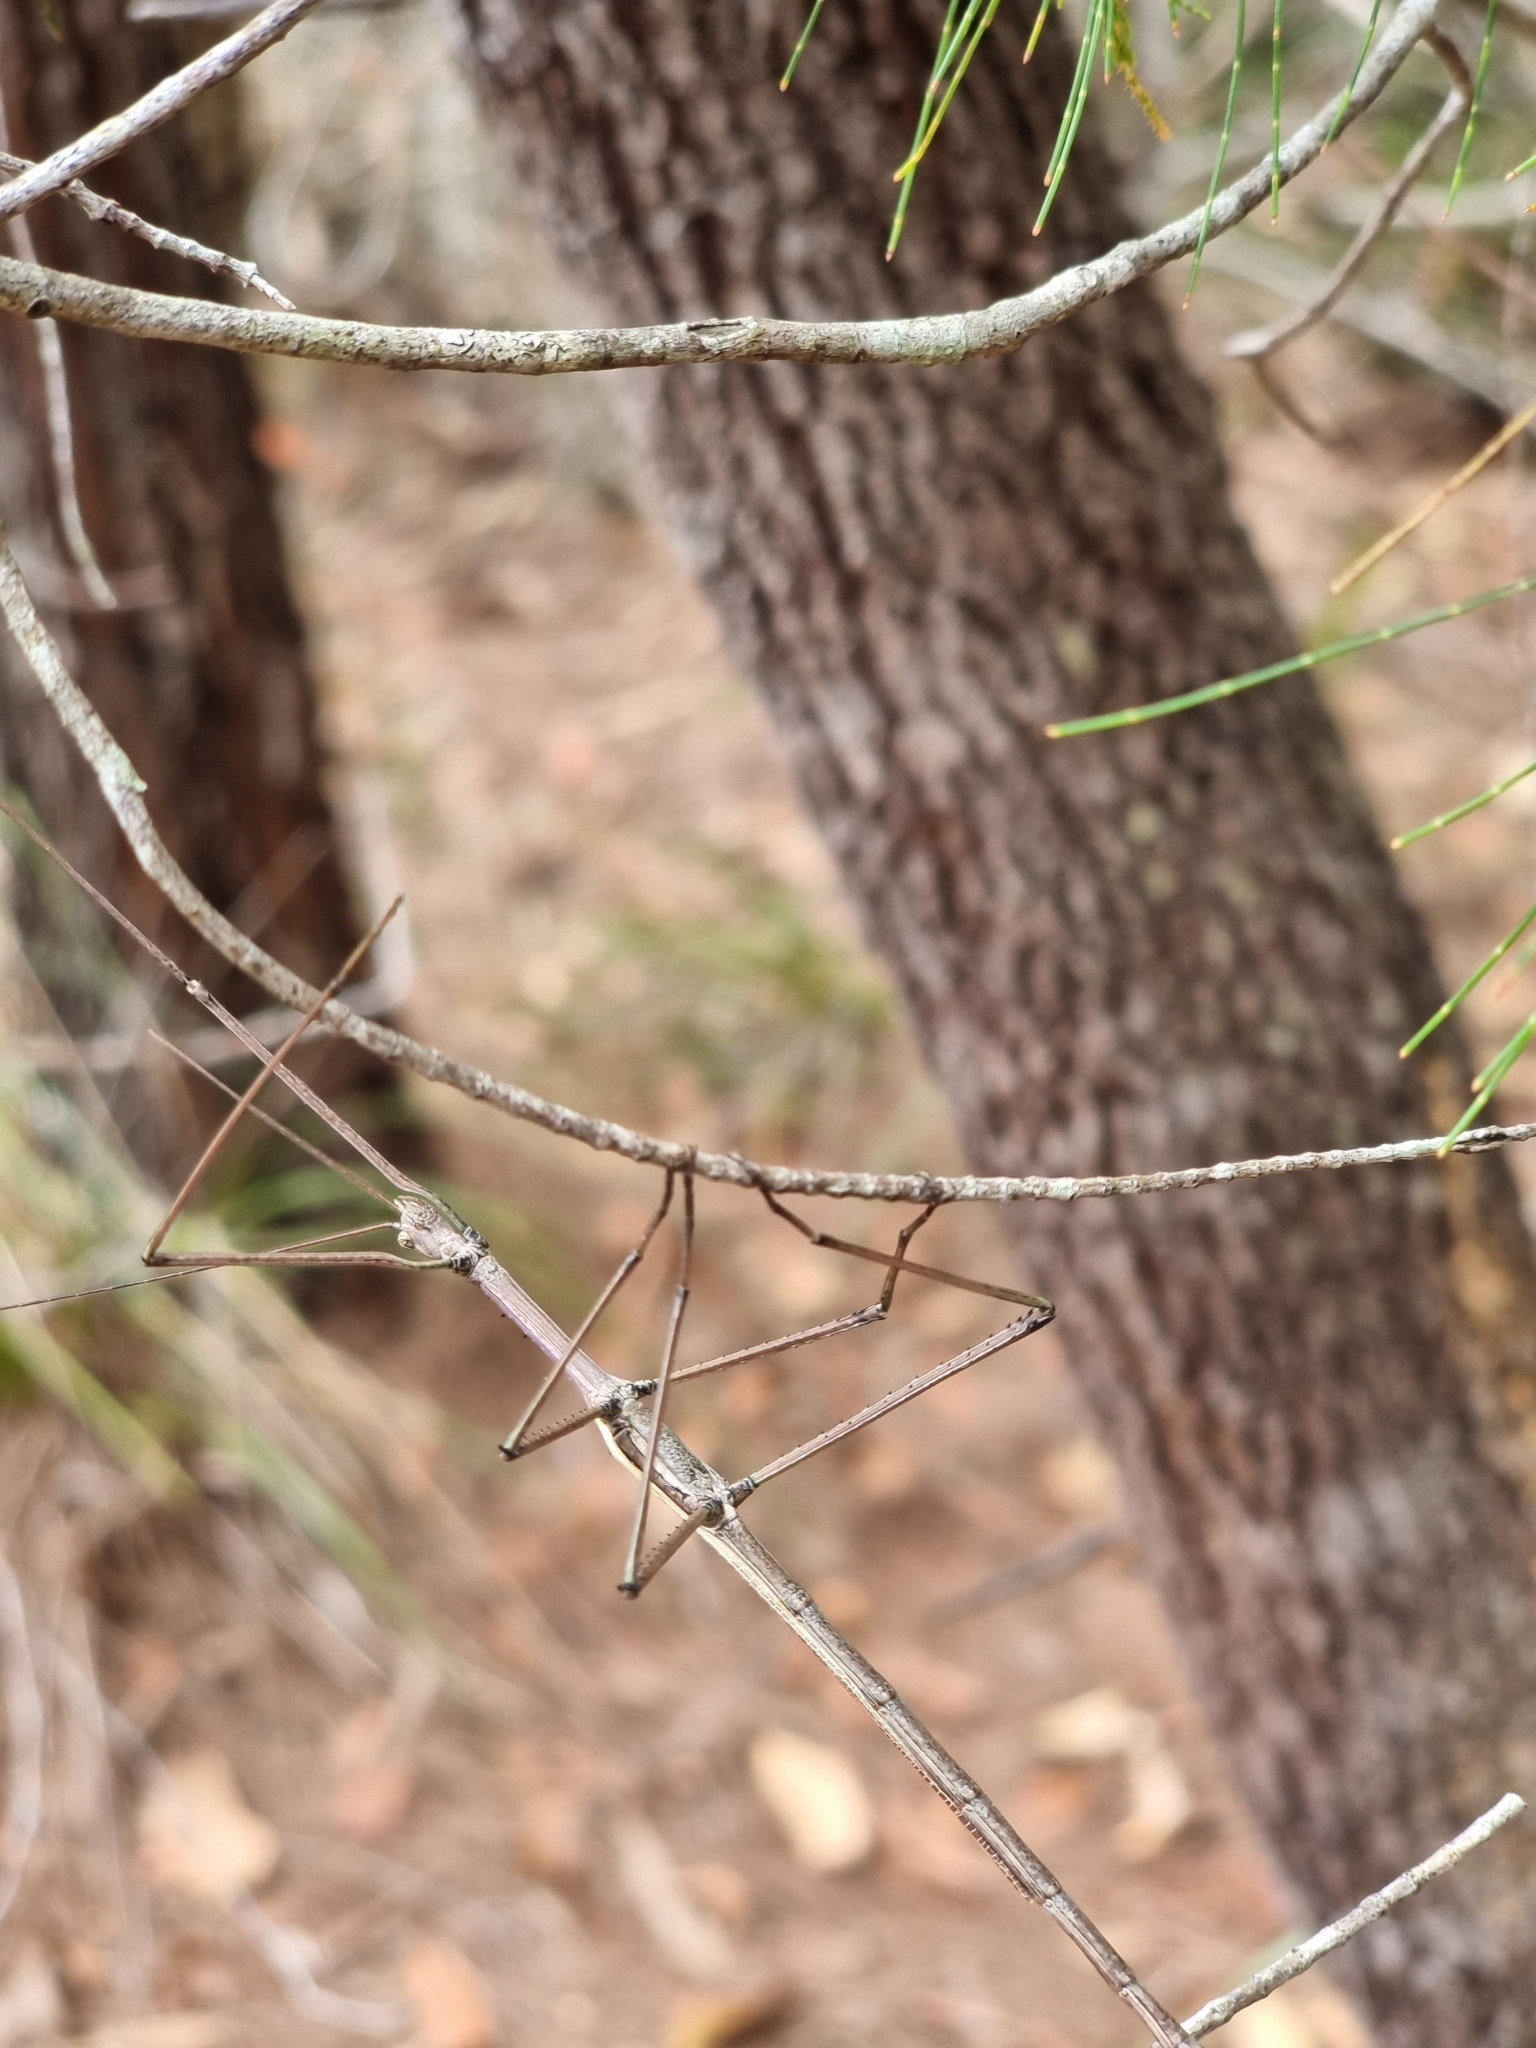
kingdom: Animalia
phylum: Arthropoda
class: Insecta
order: Phasmida
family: Phasmatidae
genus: Anchiale
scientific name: Anchiale austrotessulata
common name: Tessellated stick-insect
